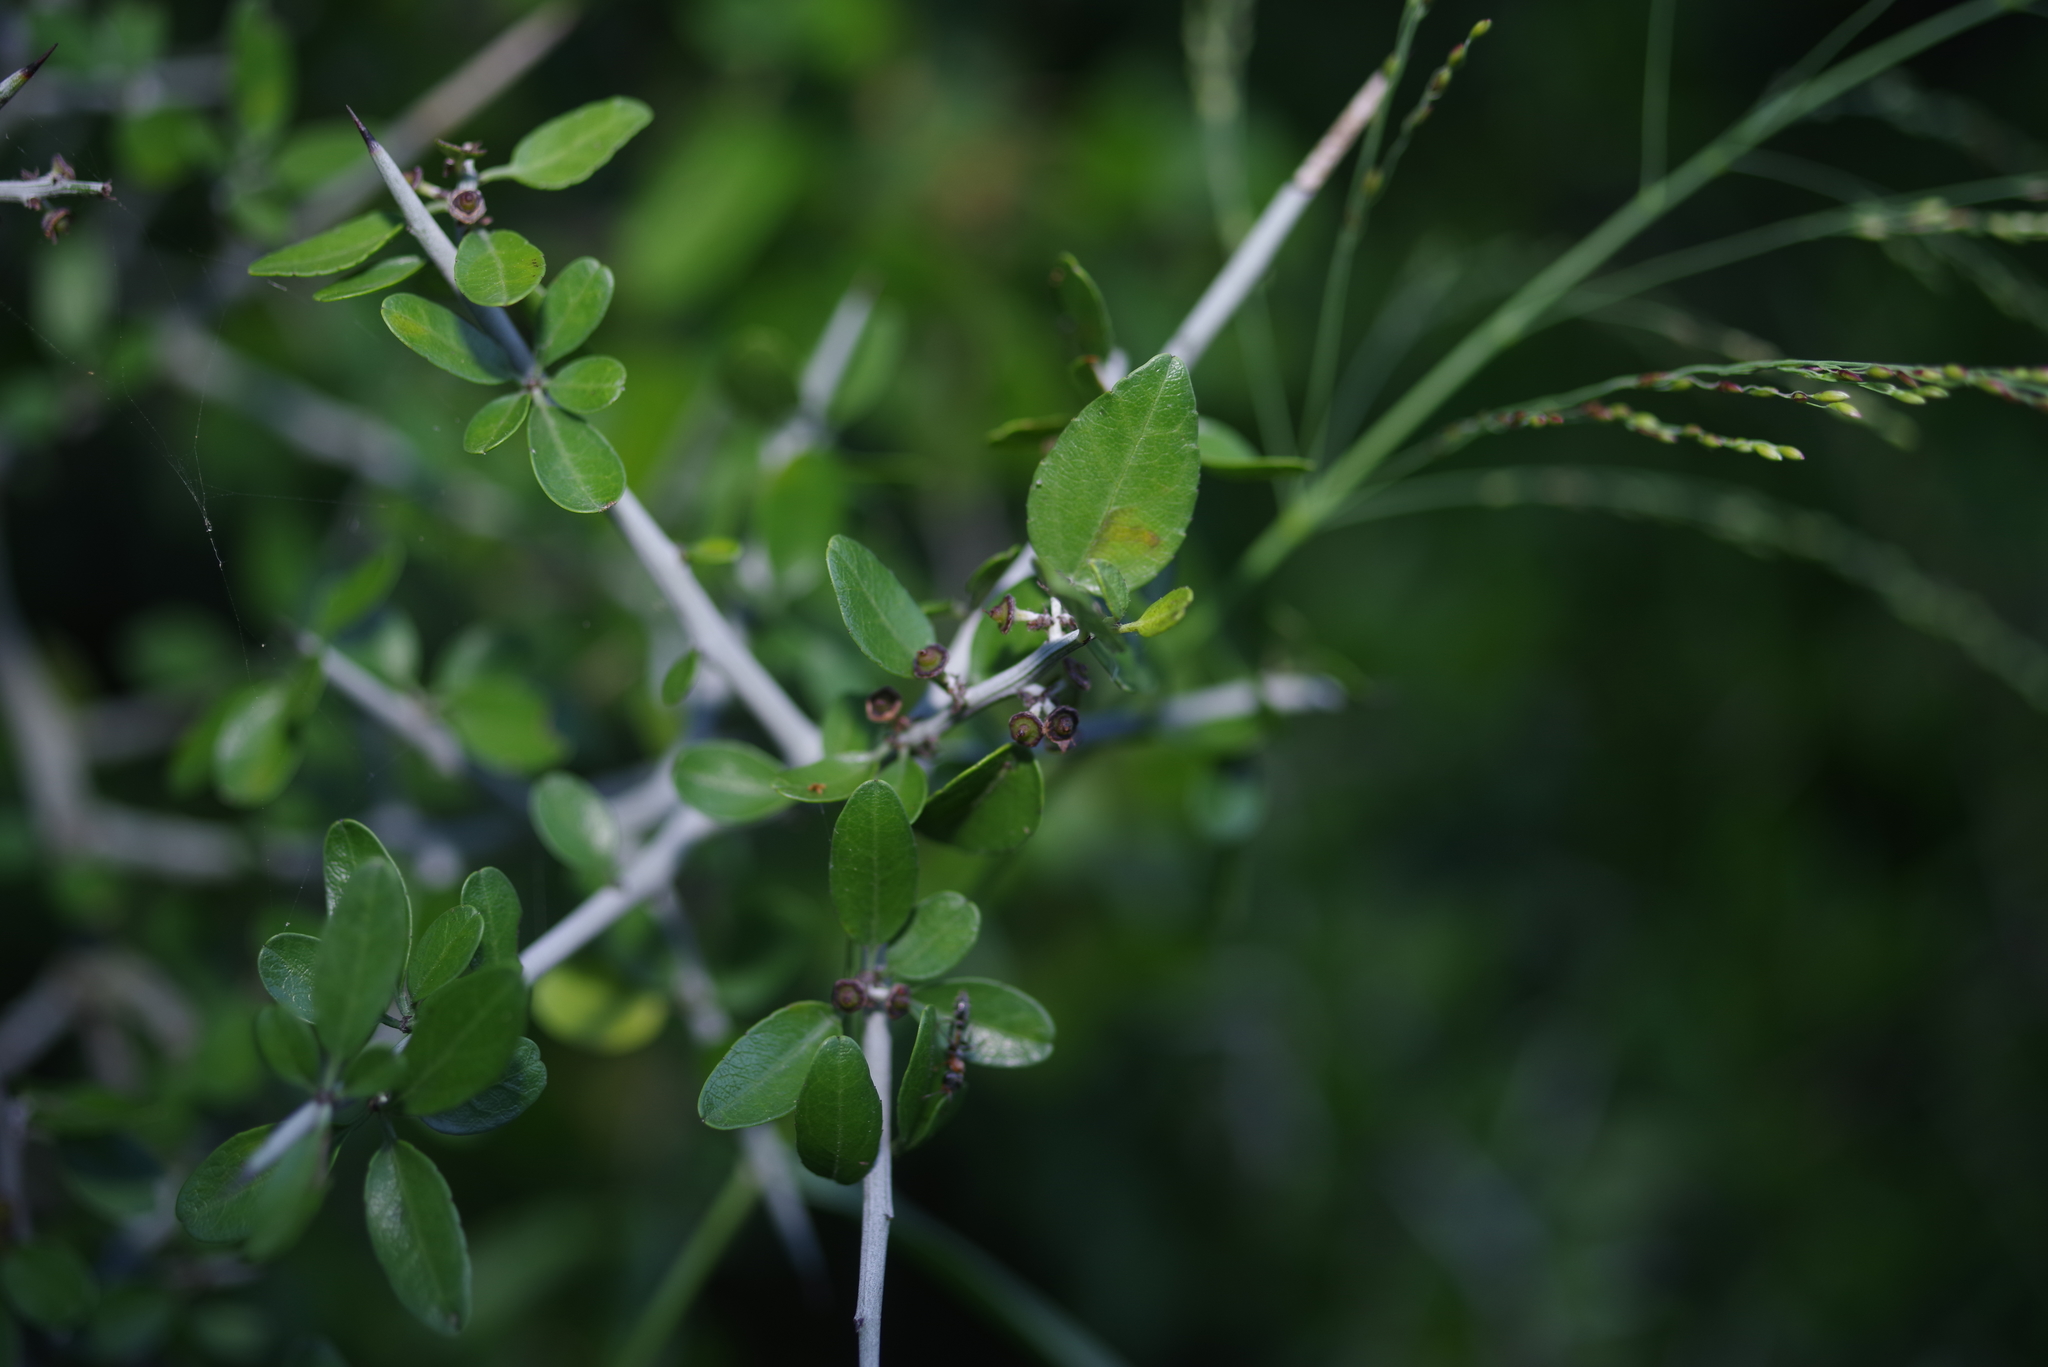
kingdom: Plantae
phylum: Tracheophyta
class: Magnoliopsida
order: Rosales
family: Rhamnaceae
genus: Sarcomphalus
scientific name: Sarcomphalus obtusifolius
